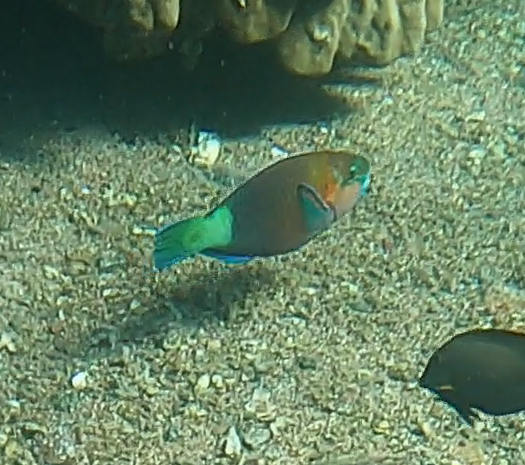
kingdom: Animalia
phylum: Chordata
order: Perciformes
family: Scaridae
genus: Chlorurus
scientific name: Chlorurus sordidus
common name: Bullethead parrotfish
